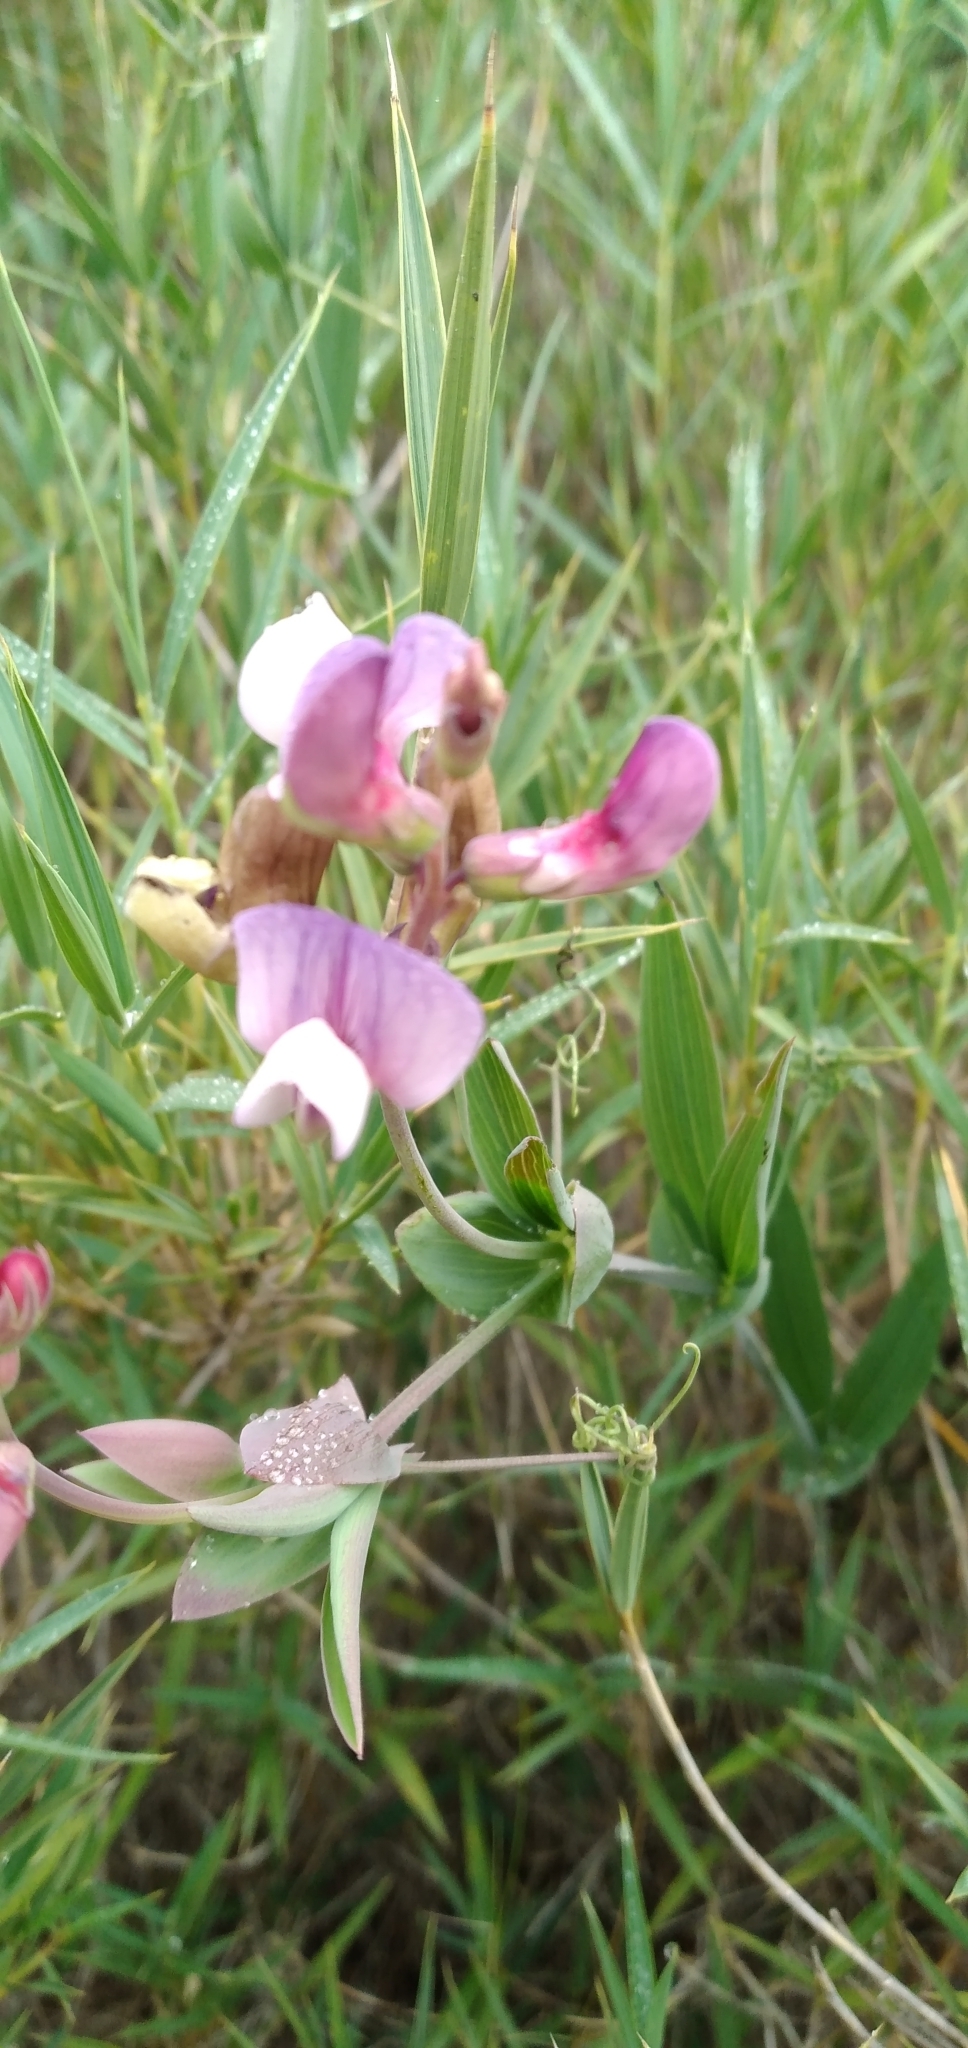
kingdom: Plantae
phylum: Tracheophyta
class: Magnoliopsida
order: Fabales
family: Fabaceae
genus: Lathyrus
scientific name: Lathyrus magellanicus
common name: Lord anson's pea
